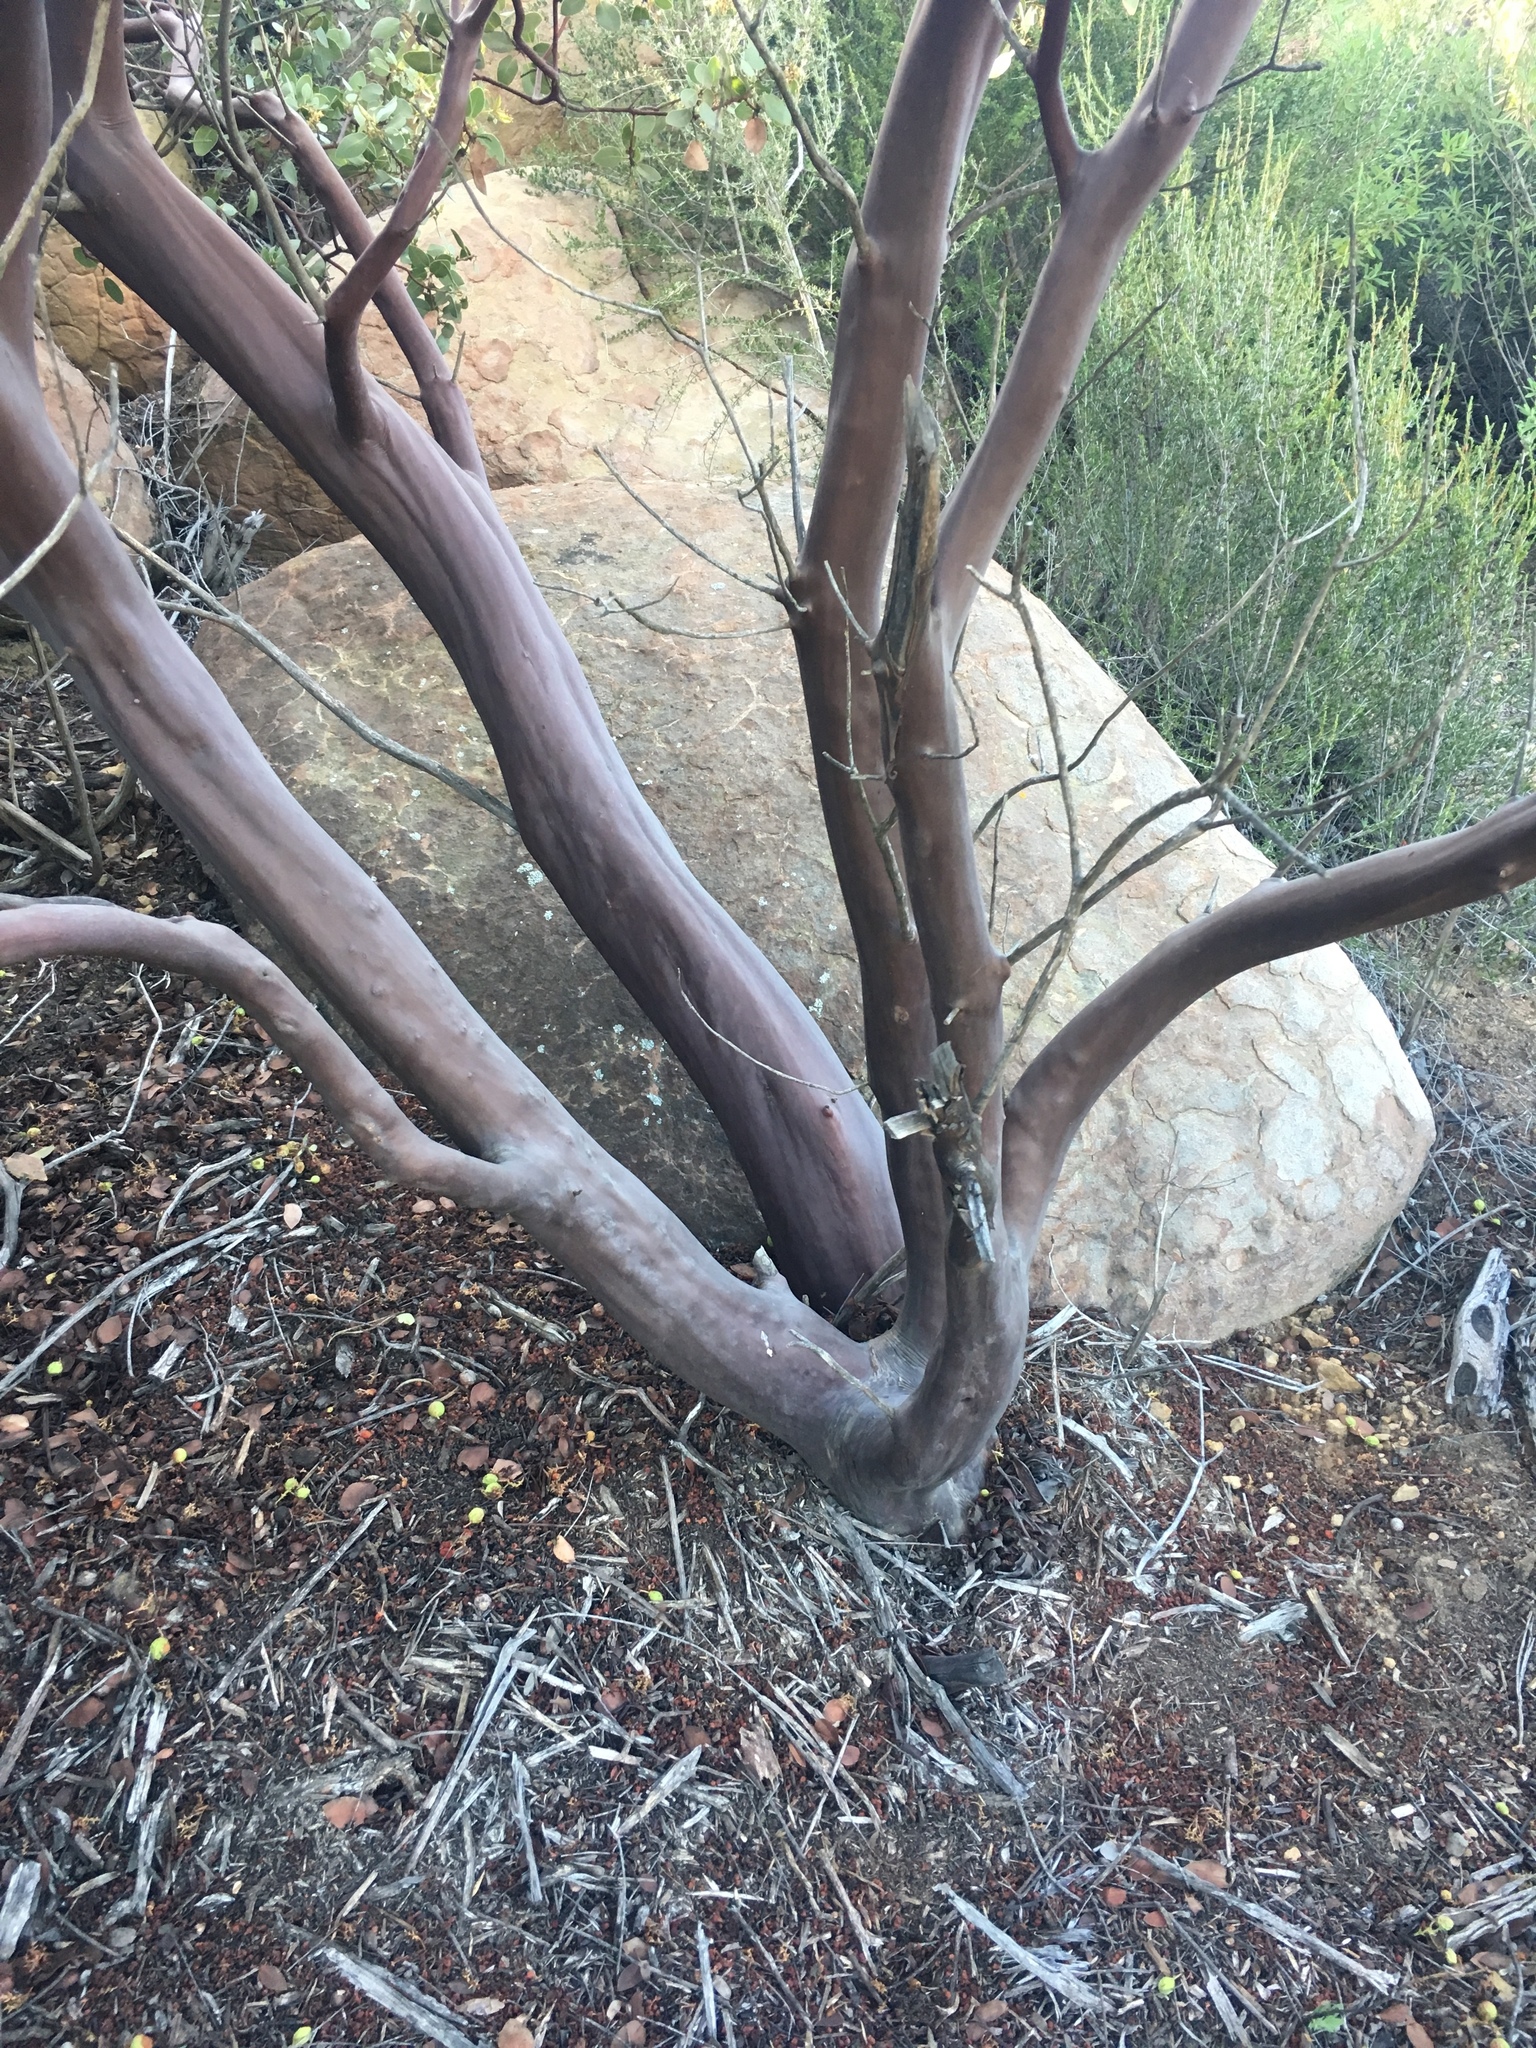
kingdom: Plantae
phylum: Tracheophyta
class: Magnoliopsida
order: Ericales
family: Ericaceae
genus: Arctostaphylos
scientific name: Arctostaphylos glauca
